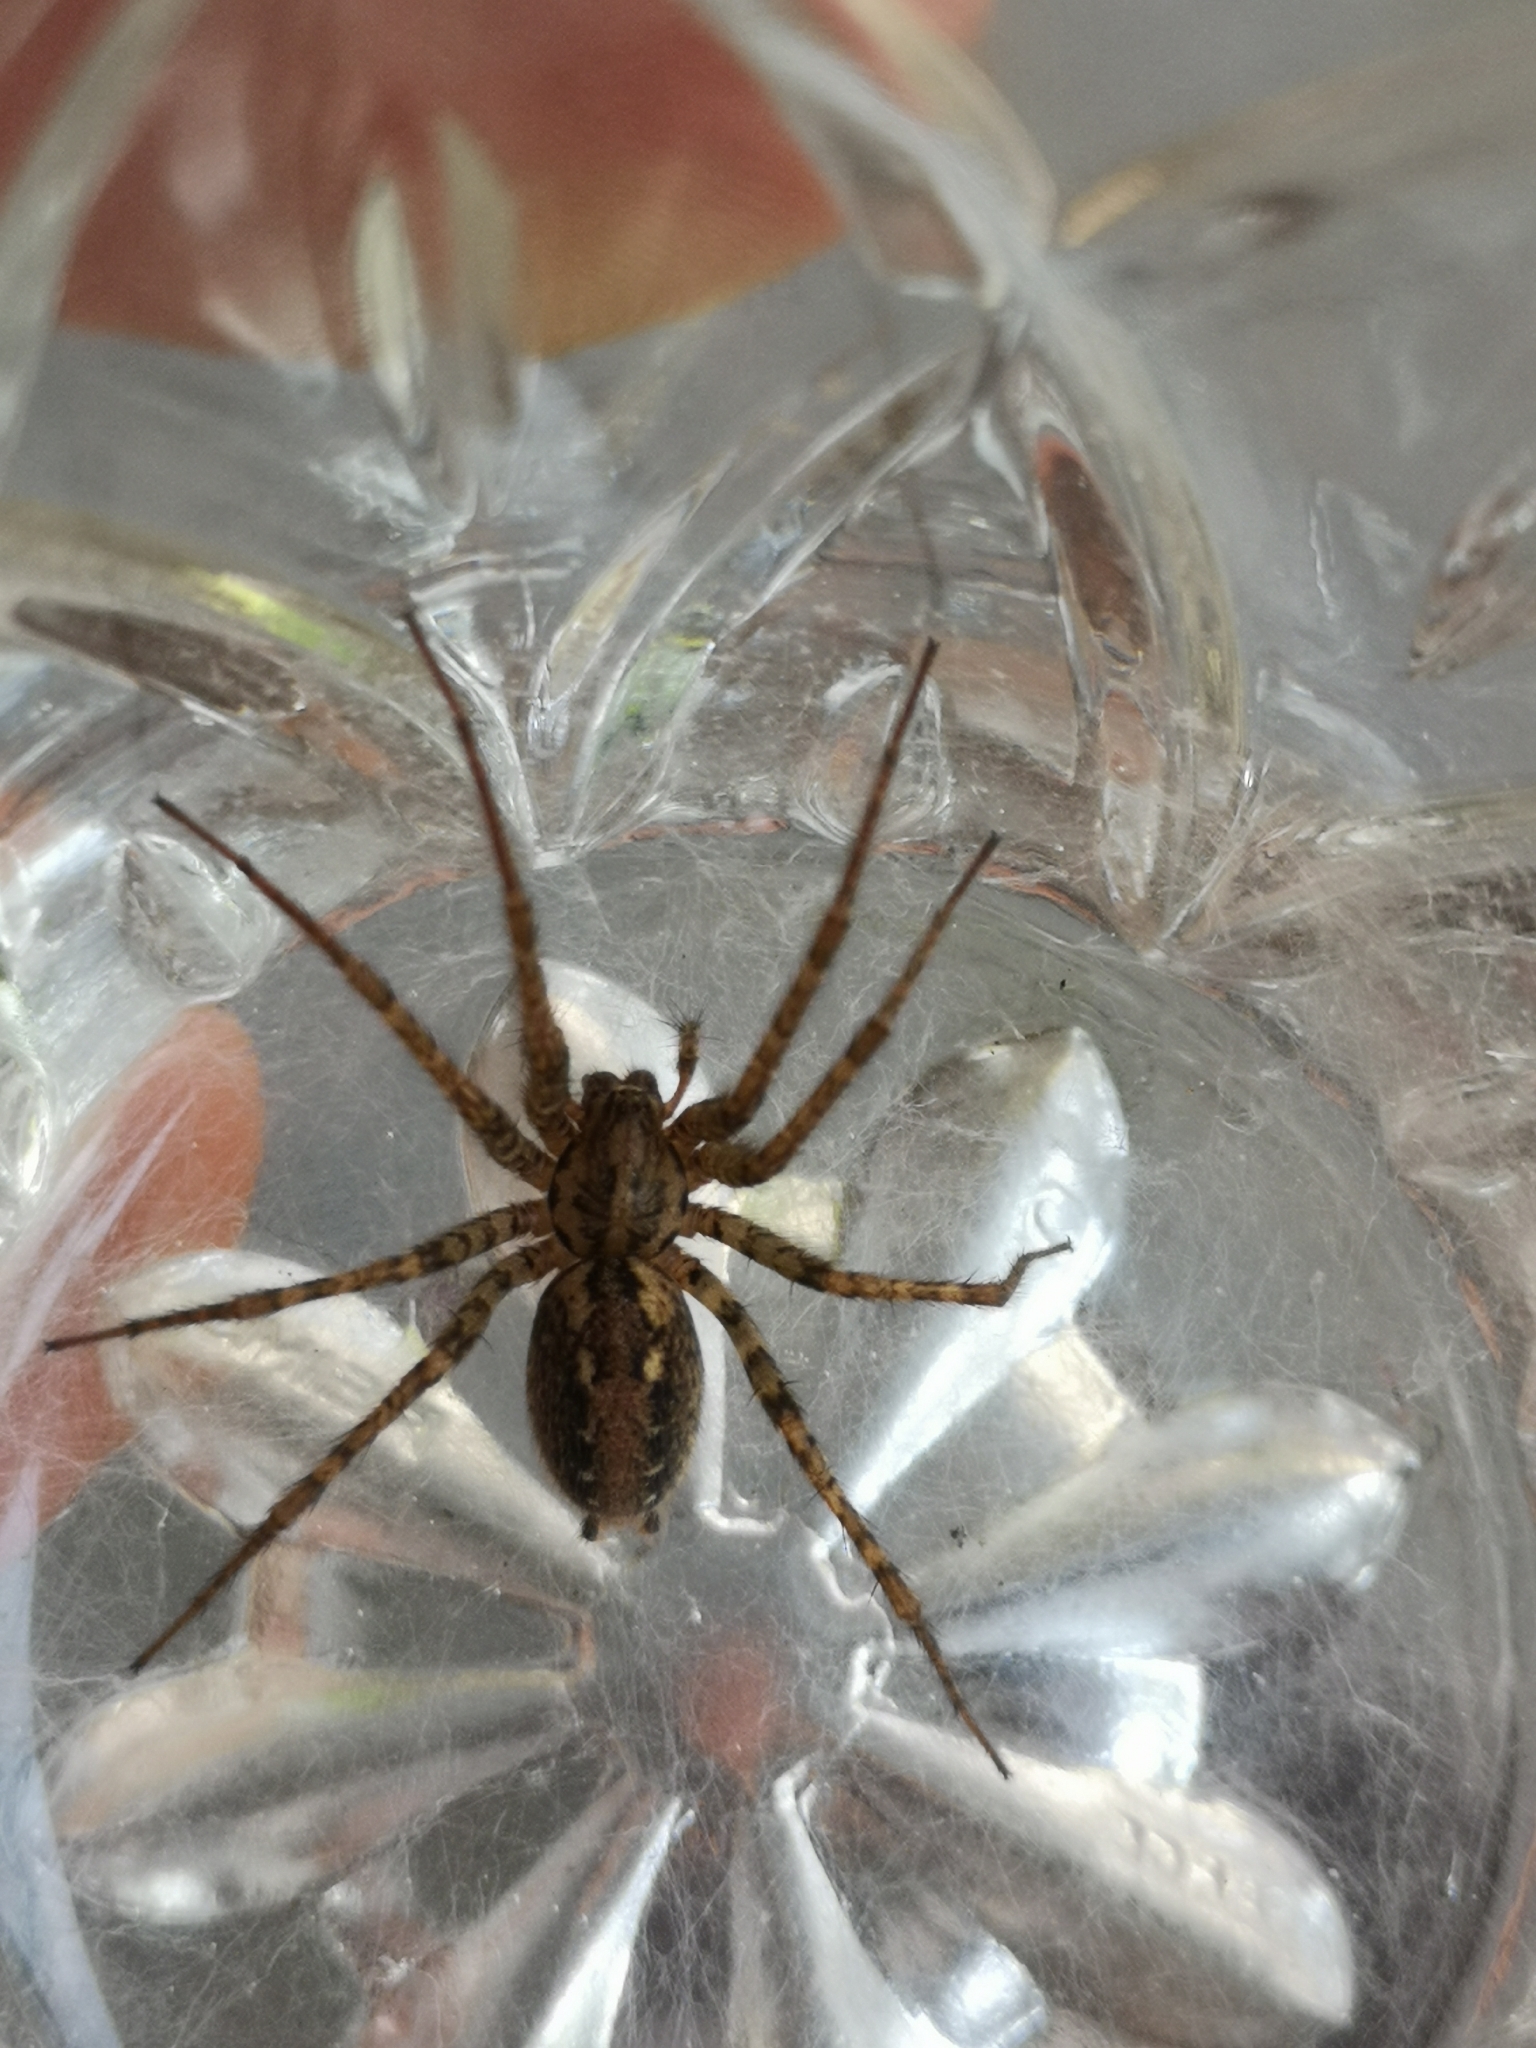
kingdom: Animalia
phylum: Arthropoda
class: Arachnida
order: Araneae
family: Agelenidae
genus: Tegenaria
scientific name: Tegenaria ferruginea
